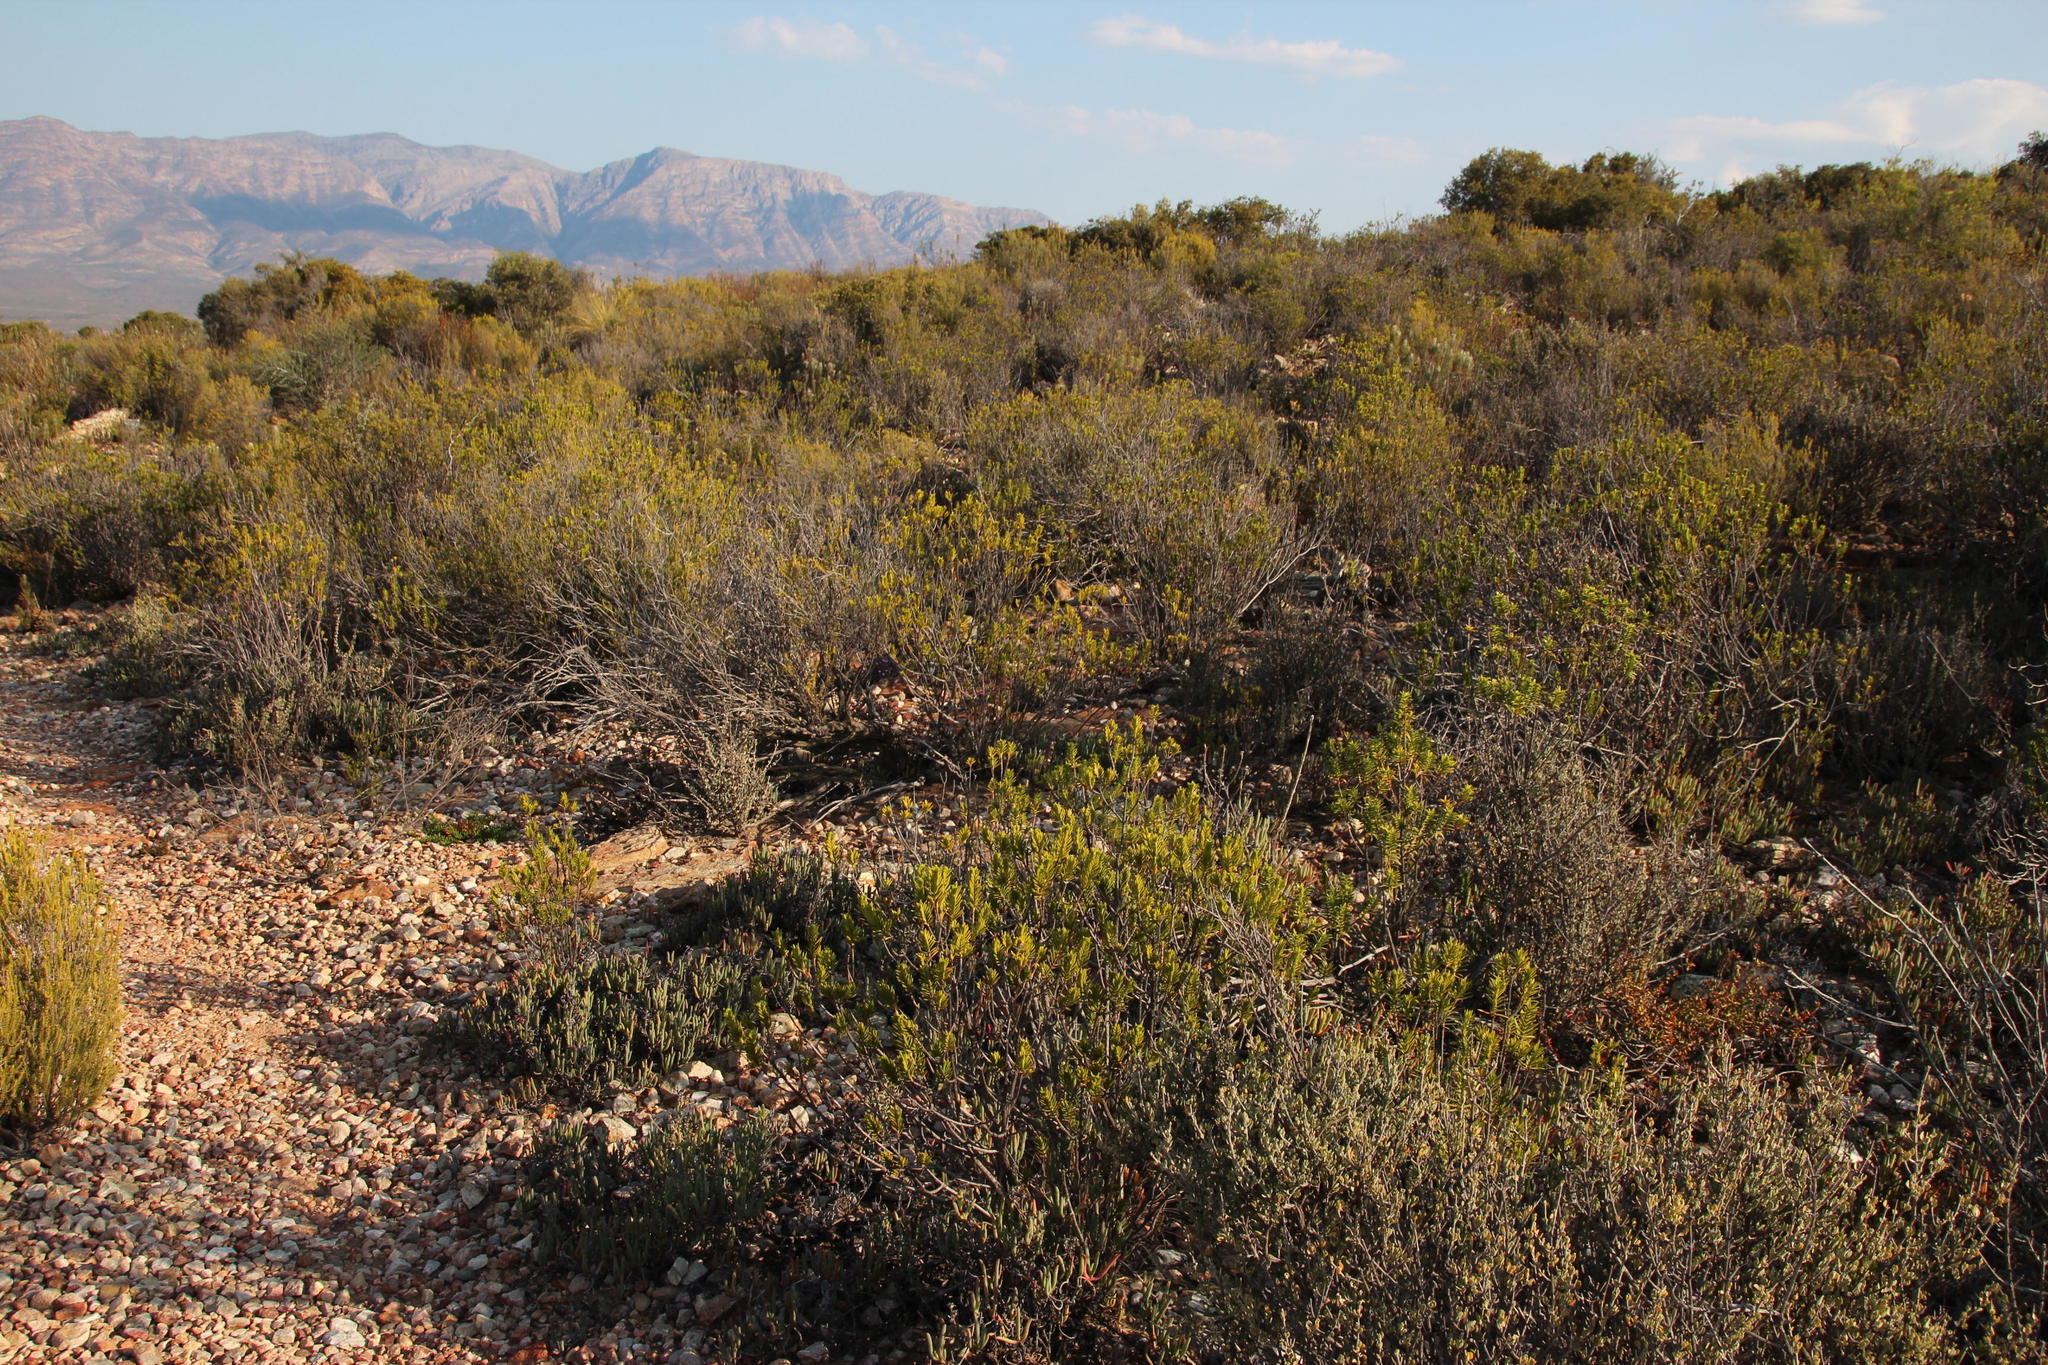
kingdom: Plantae
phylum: Tracheophyta
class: Magnoliopsida
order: Asterales
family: Asteraceae
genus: Pteronia
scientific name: Pteronia fasciculata
